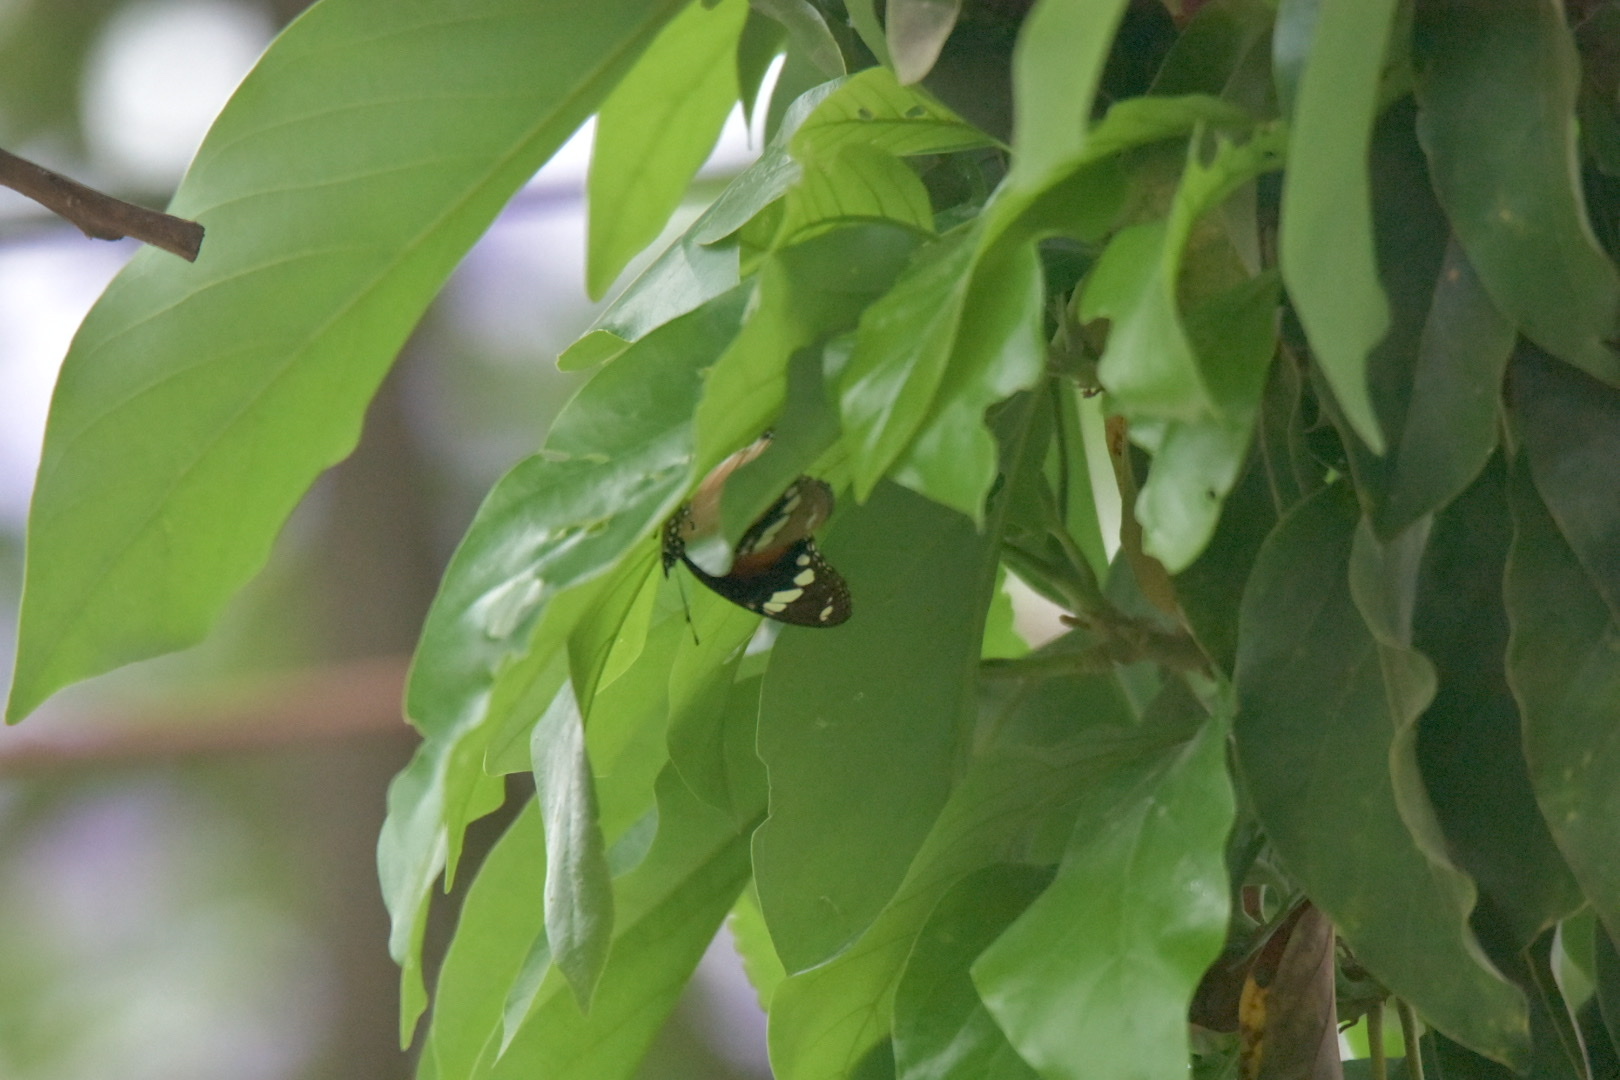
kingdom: Animalia
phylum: Arthropoda
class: Insecta
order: Lepidoptera
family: Nymphalidae
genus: Hypolimnas
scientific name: Hypolimnas misippus
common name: False plain tiger
